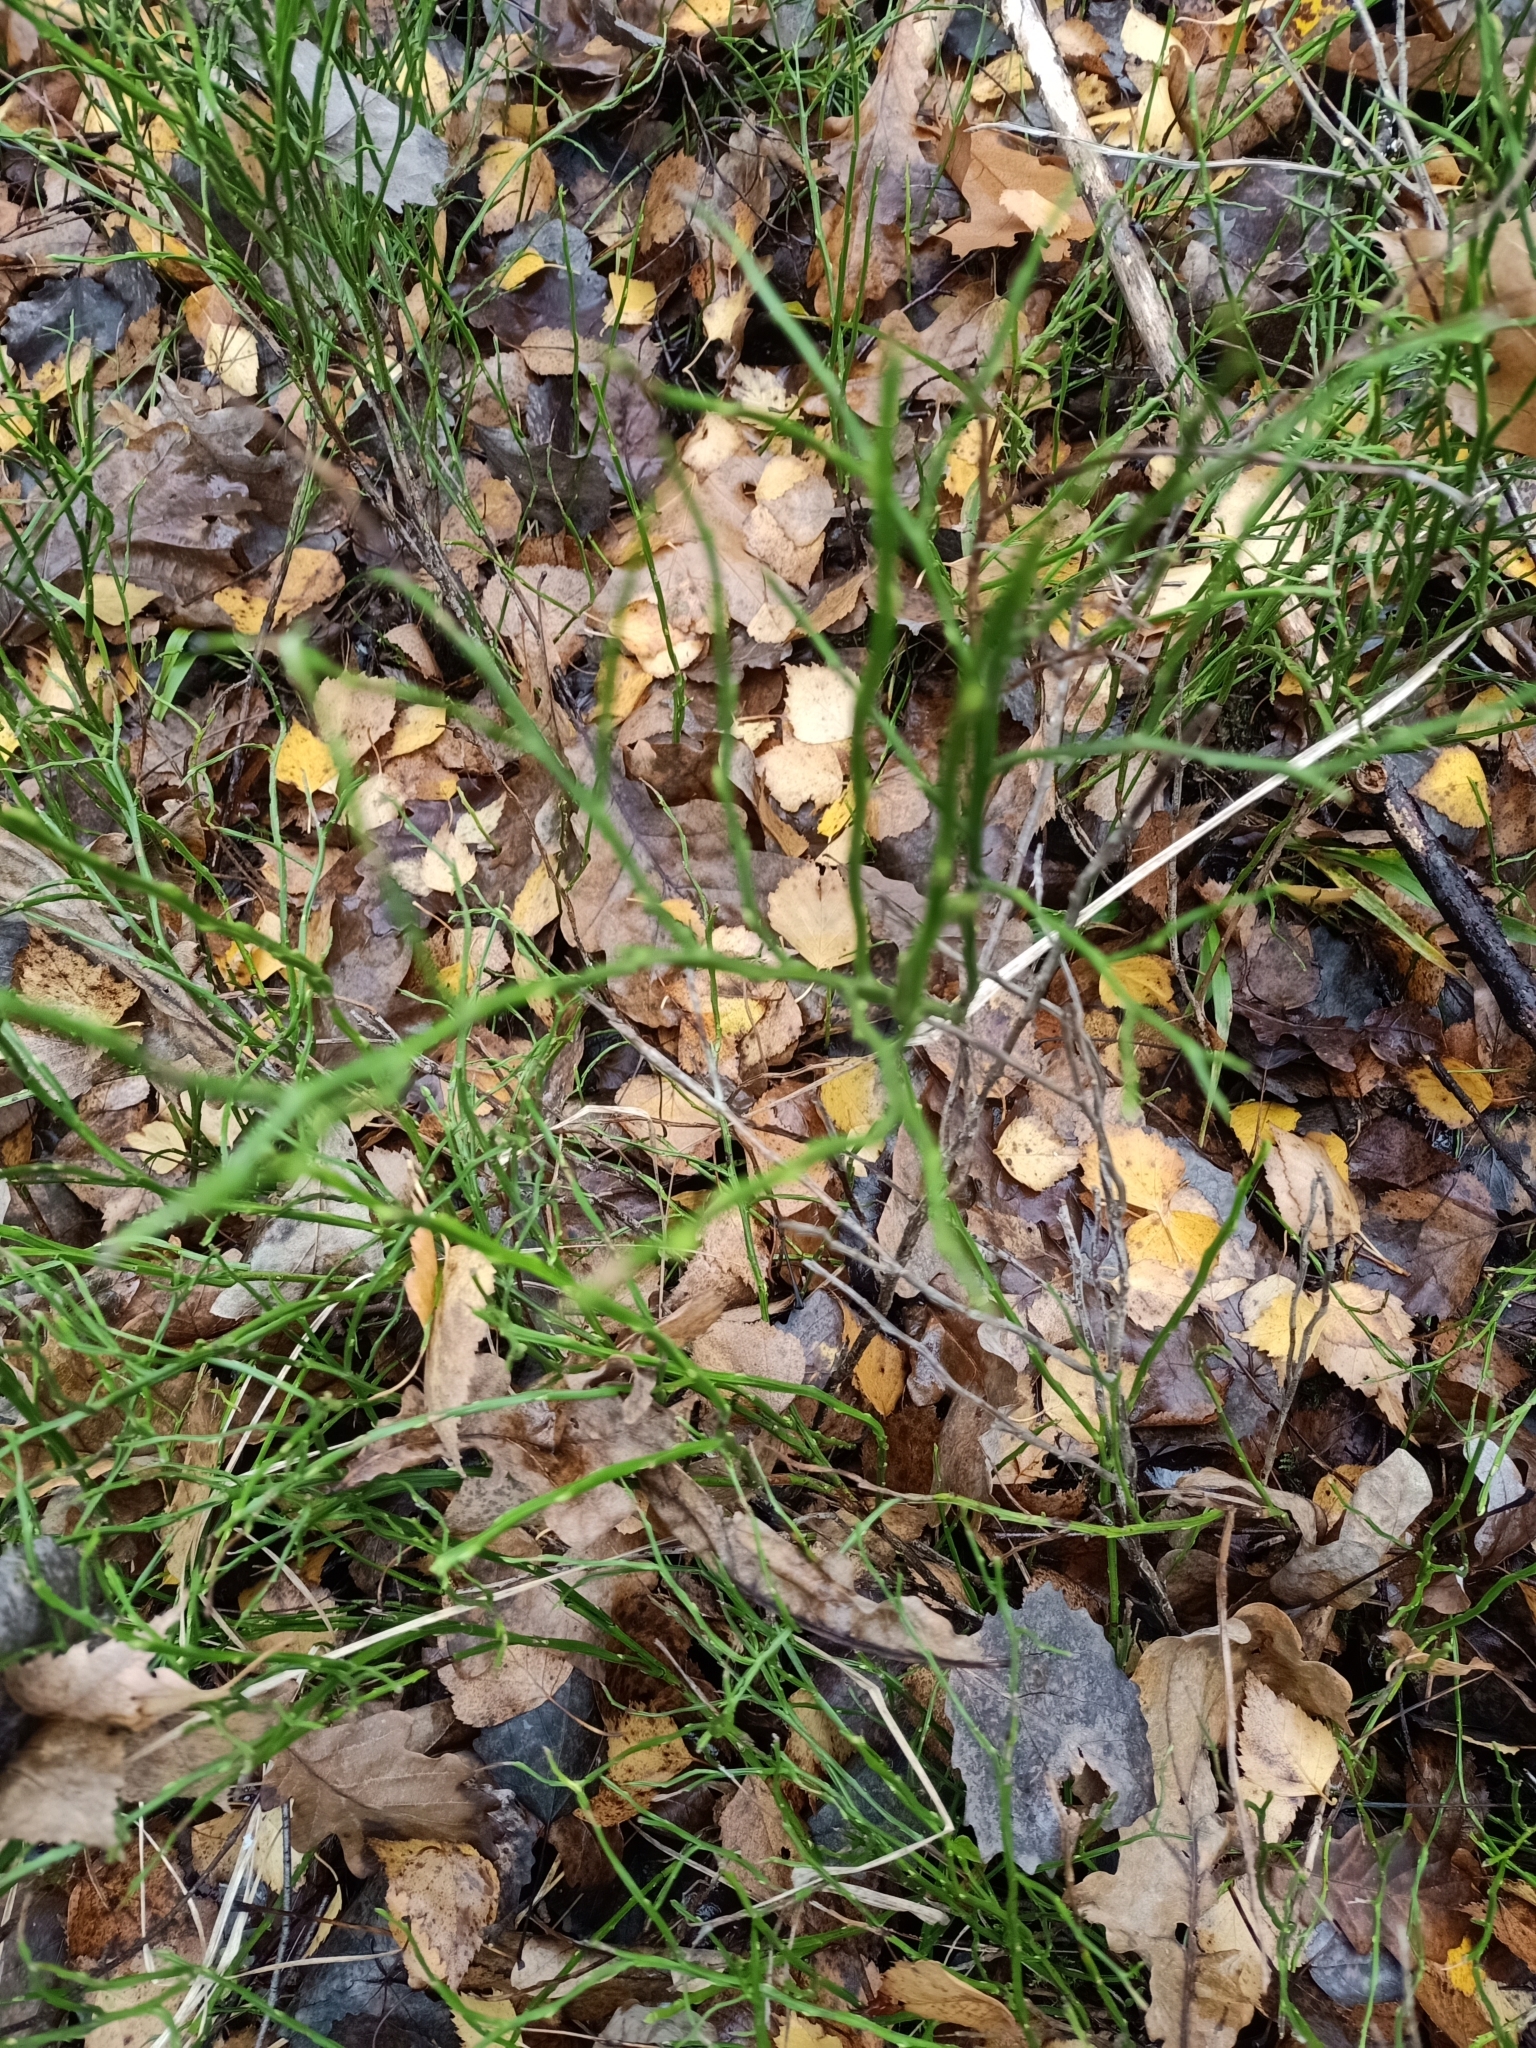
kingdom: Plantae
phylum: Tracheophyta
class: Magnoliopsida
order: Ericales
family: Ericaceae
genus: Vaccinium
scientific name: Vaccinium myrtillus
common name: Bilberry
